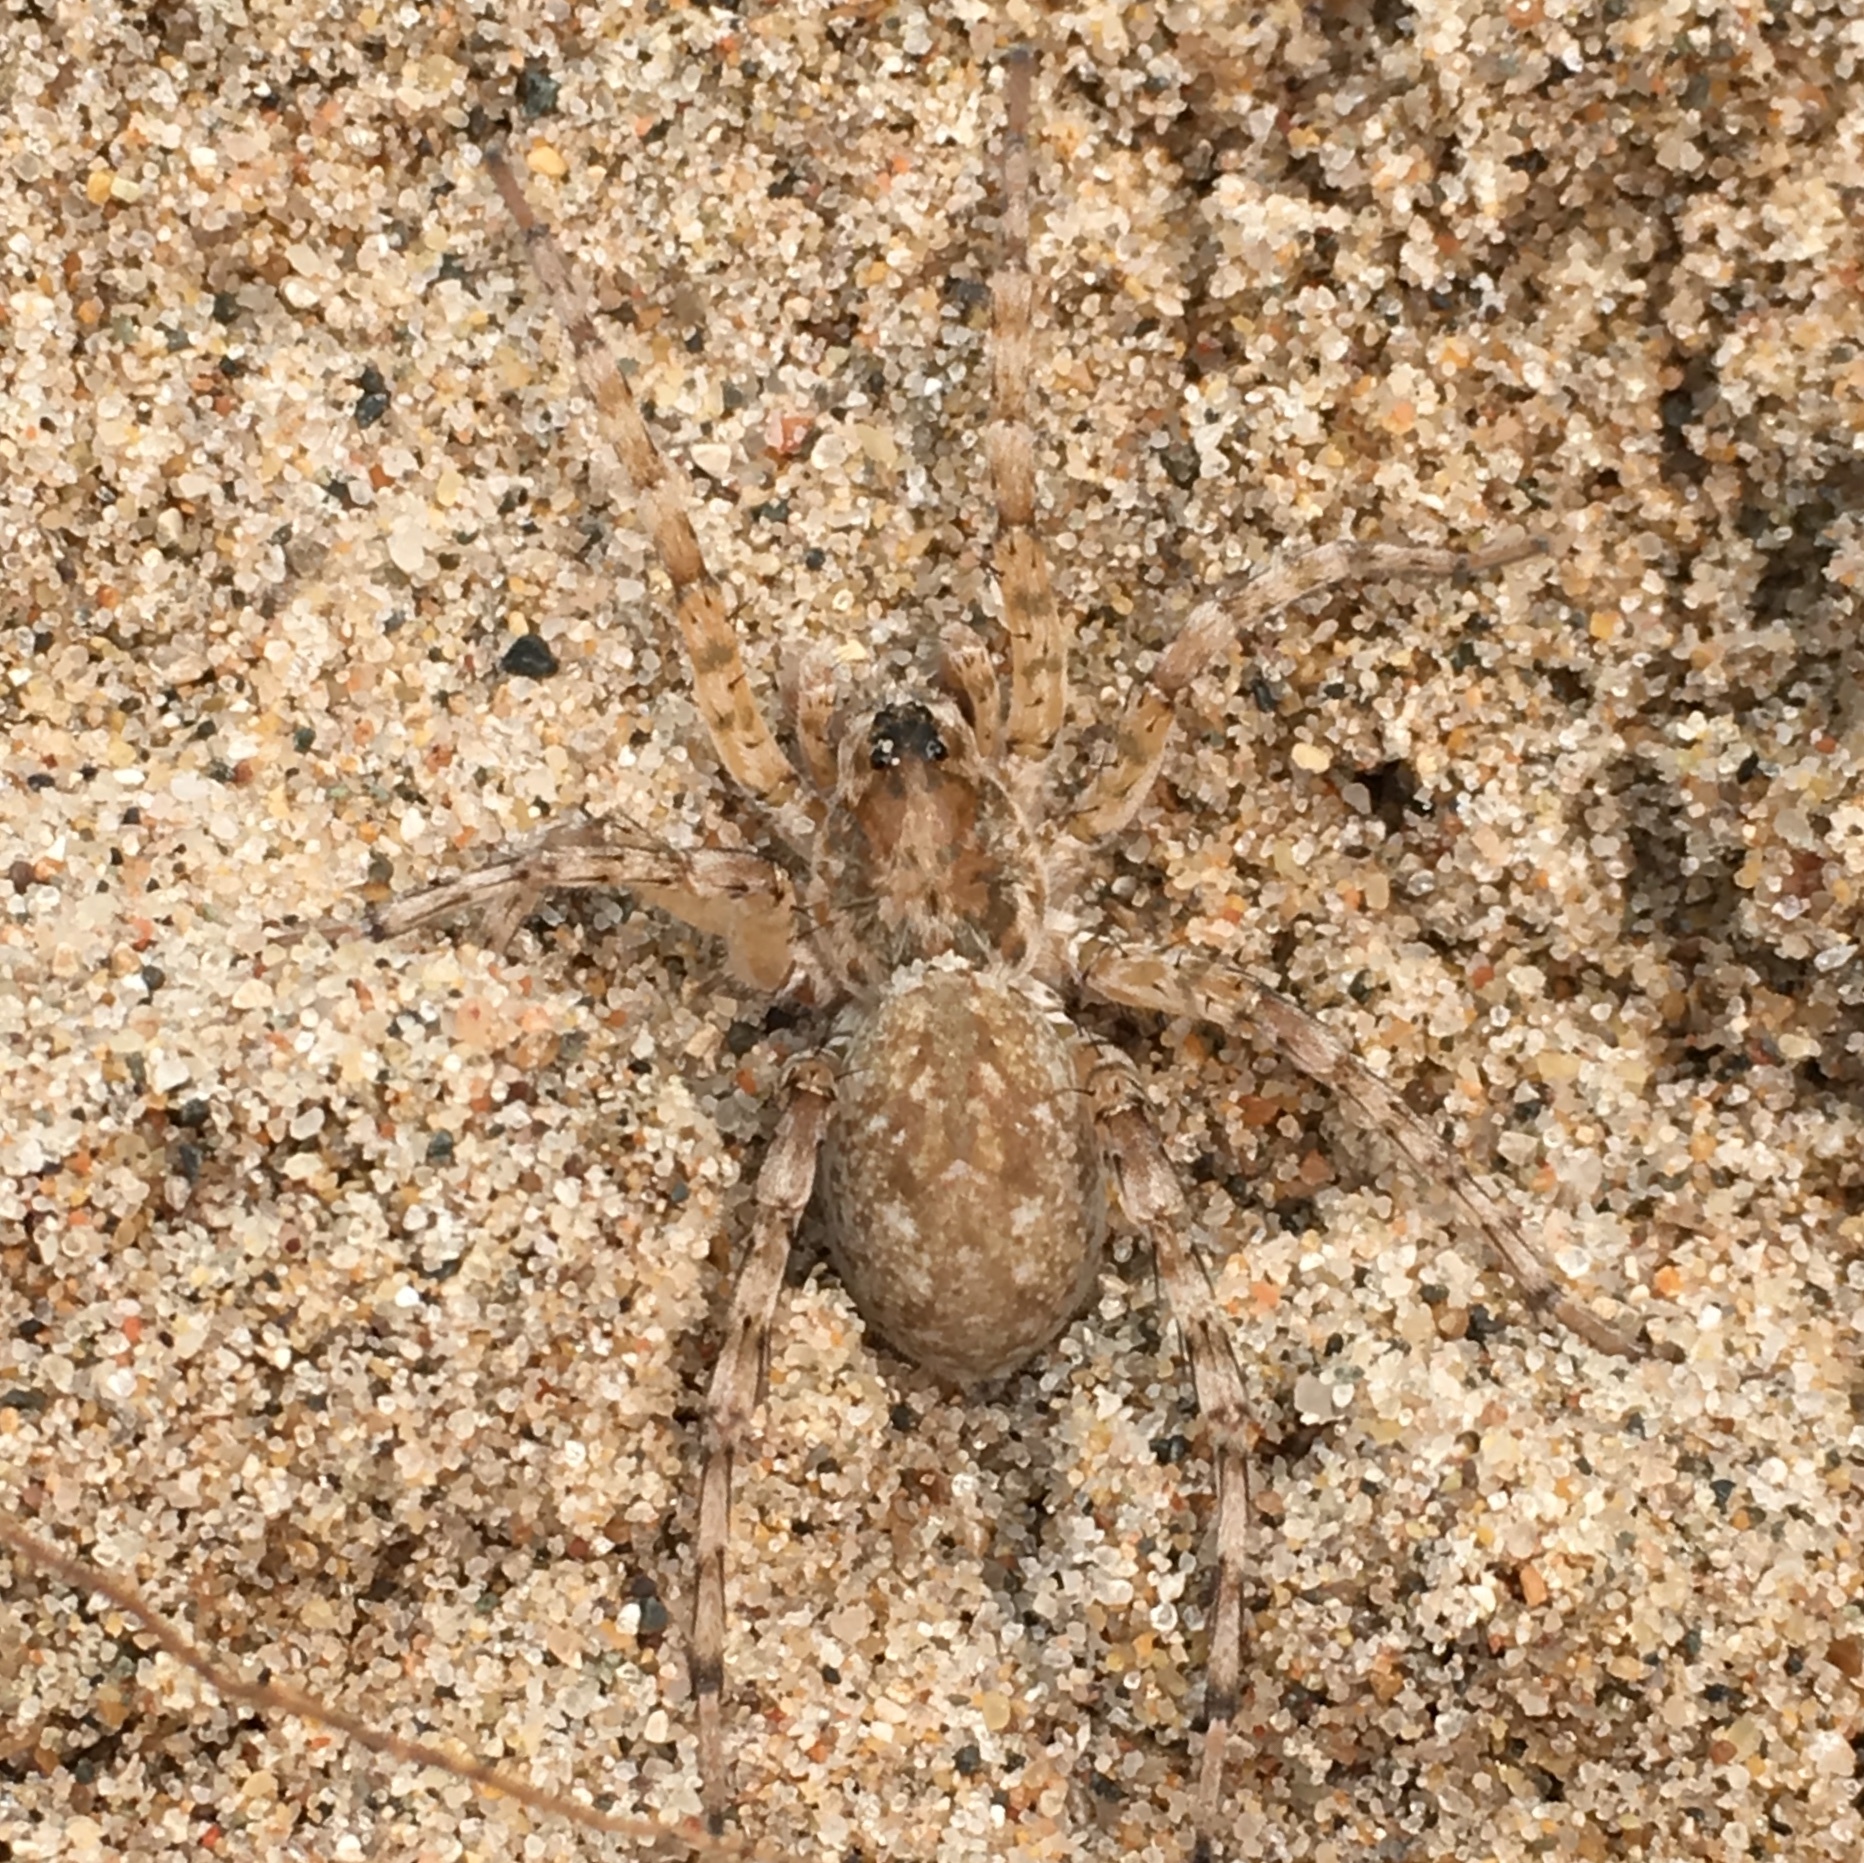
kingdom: Animalia
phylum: Arthropoda
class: Arachnida
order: Araneae
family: Lycosidae
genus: Arctosa
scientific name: Arctosa littoralis
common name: Wolf spiders
